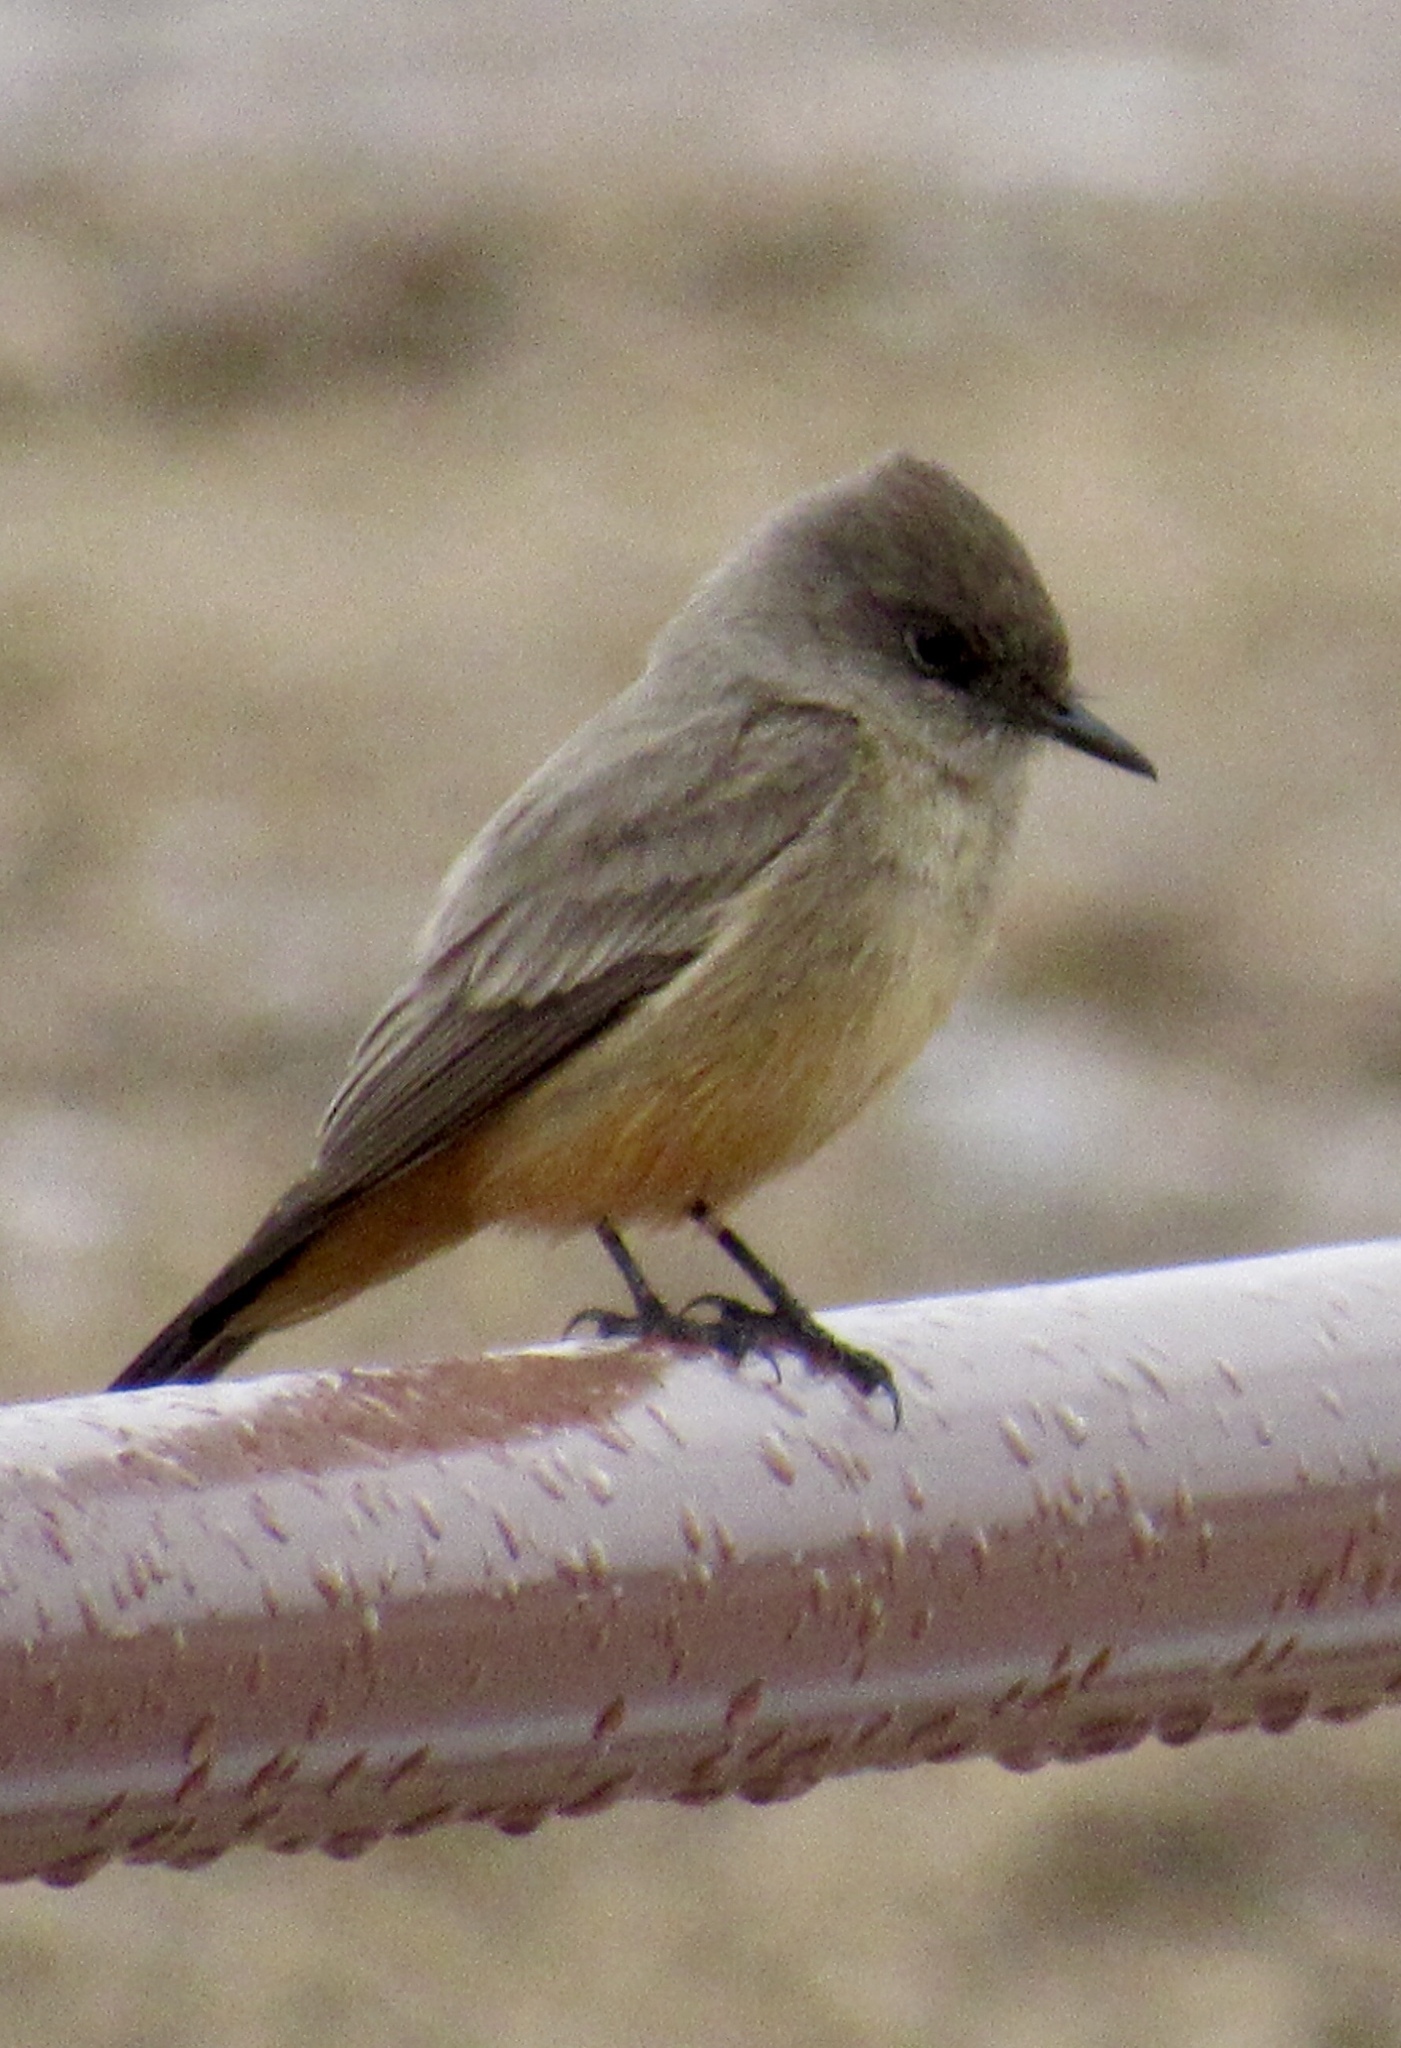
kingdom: Animalia
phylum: Chordata
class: Aves
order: Passeriformes
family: Tyrannidae
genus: Sayornis
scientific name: Sayornis saya
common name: Say's phoebe
